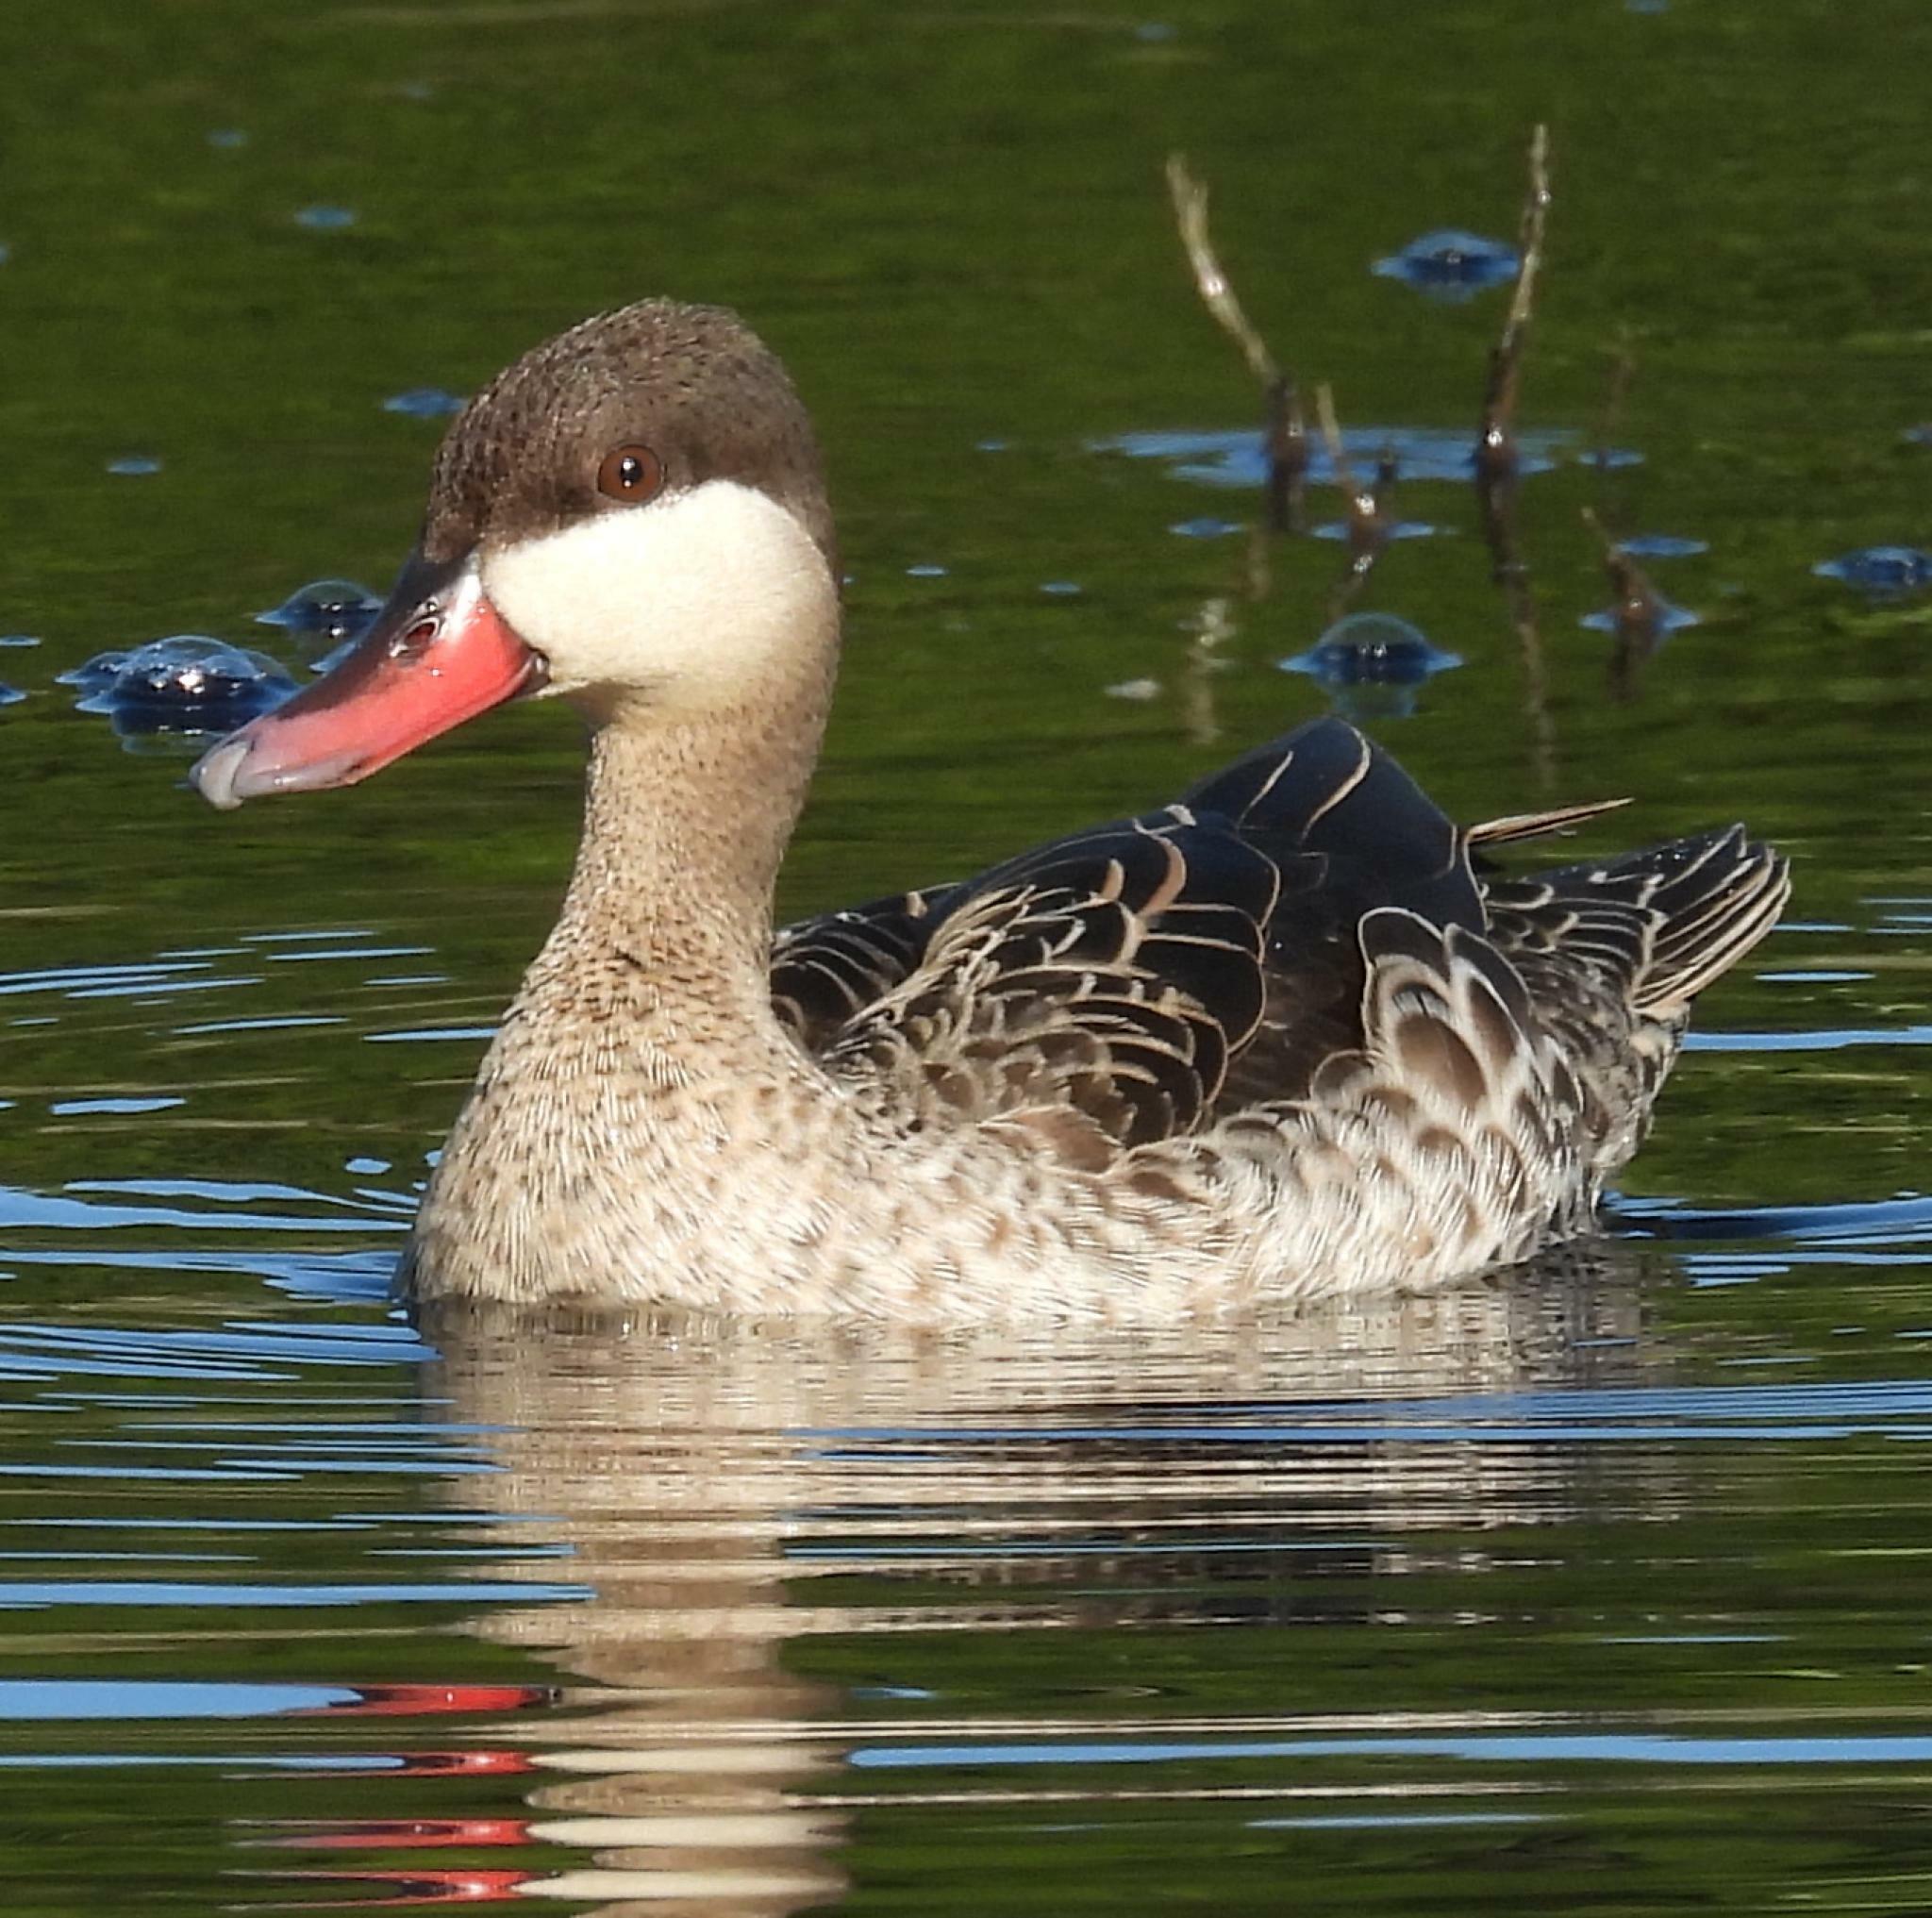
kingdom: Animalia
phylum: Chordata
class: Aves
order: Anseriformes
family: Anatidae
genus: Anas
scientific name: Anas erythrorhyncha
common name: Red-billed teal
